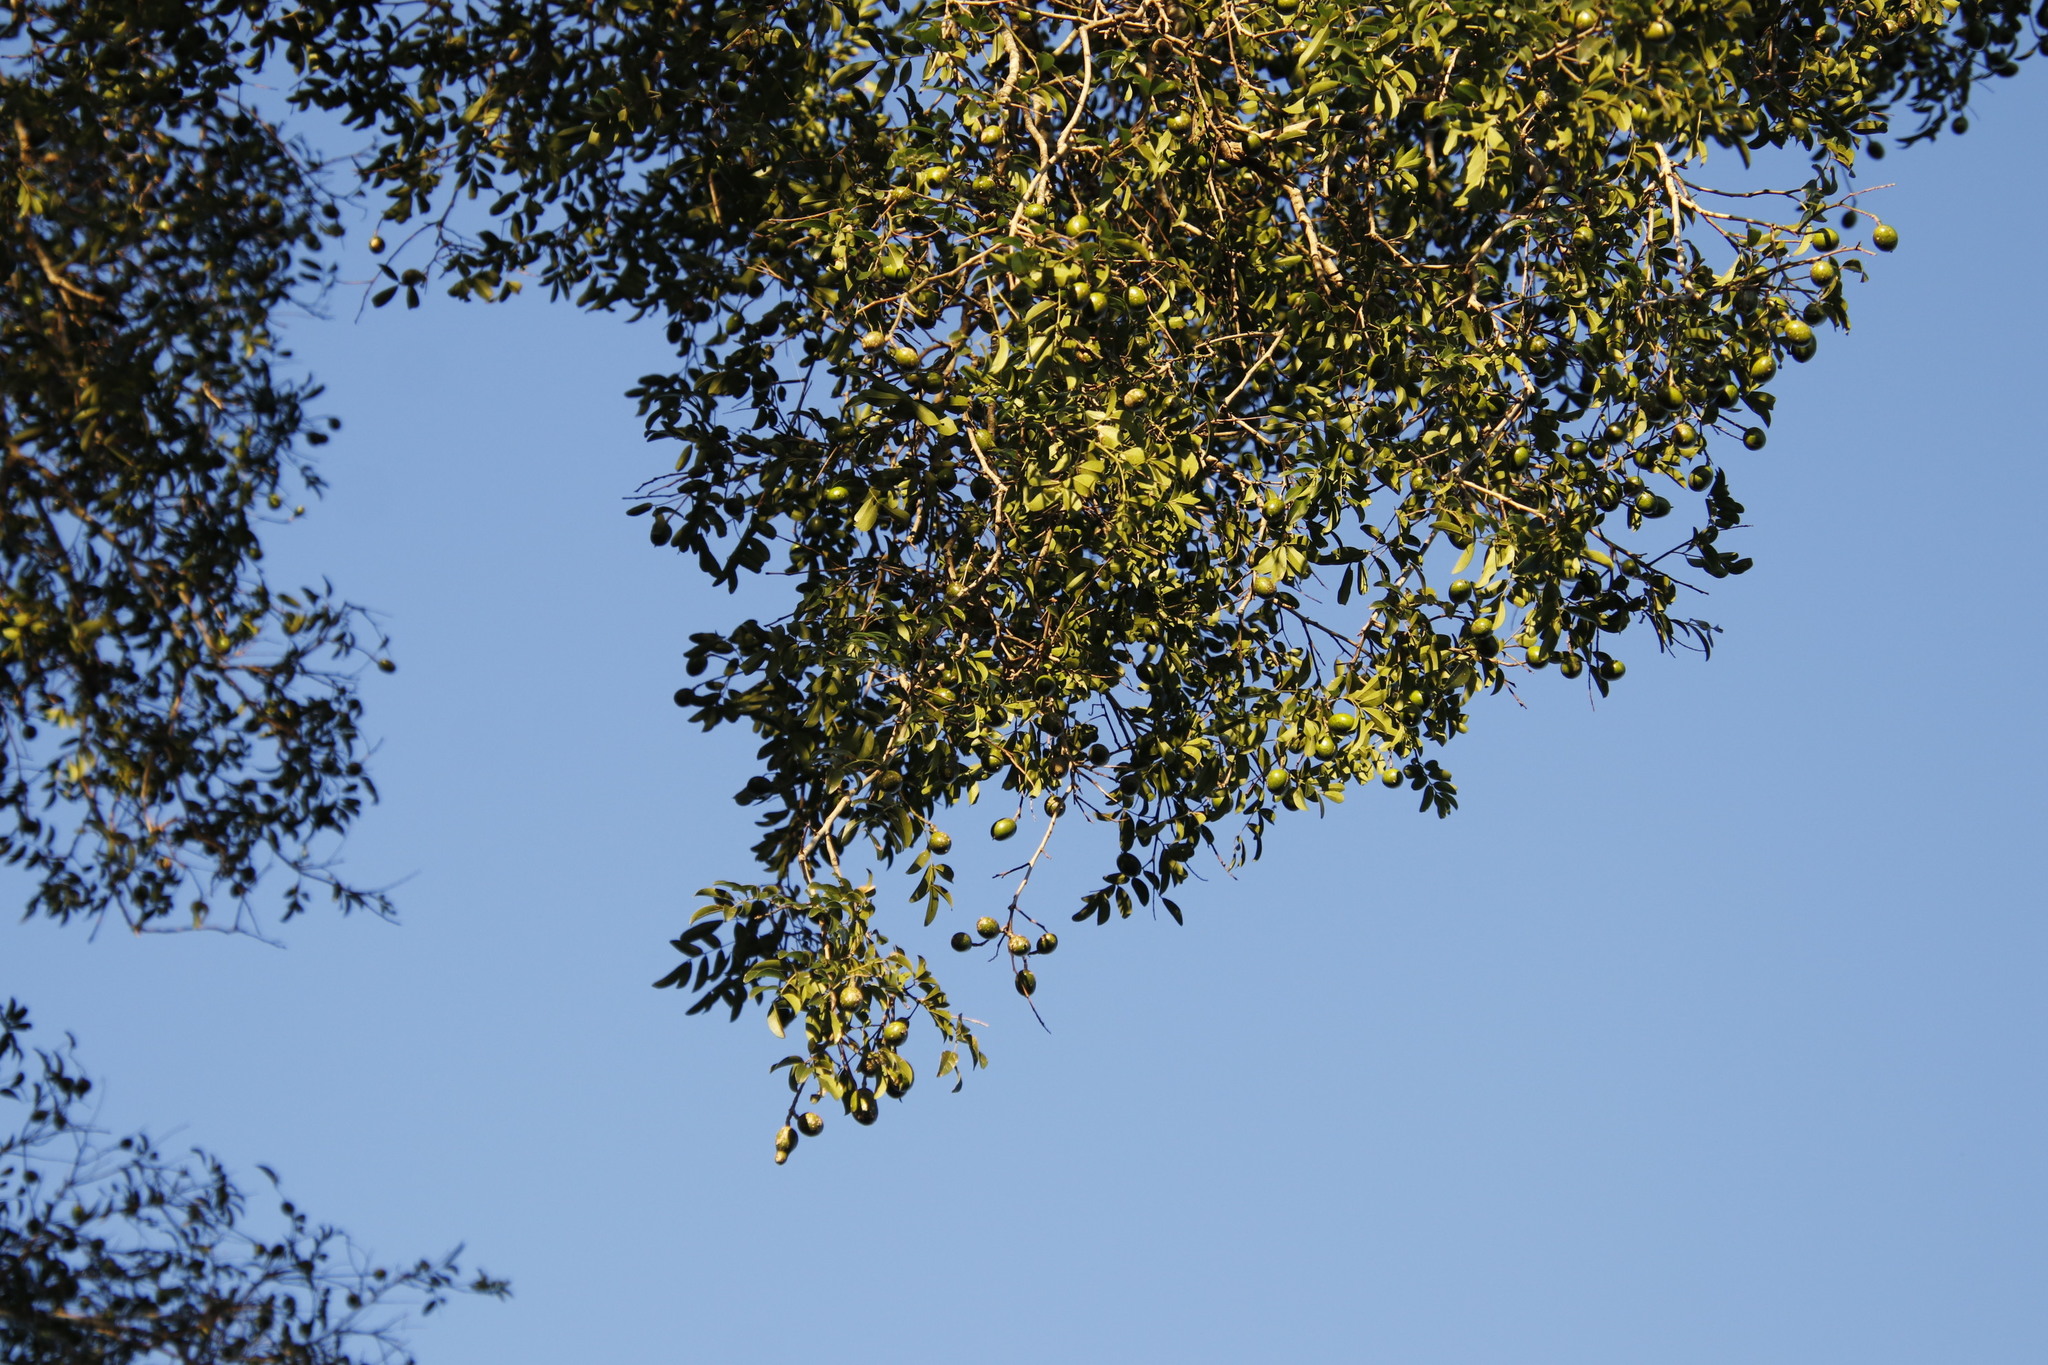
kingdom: Plantae
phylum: Tracheophyta
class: Magnoliopsida
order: Fabales
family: Fabaceae
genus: Xanthocercis
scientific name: Xanthocercis zambesiaca
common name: Nyala-tree
